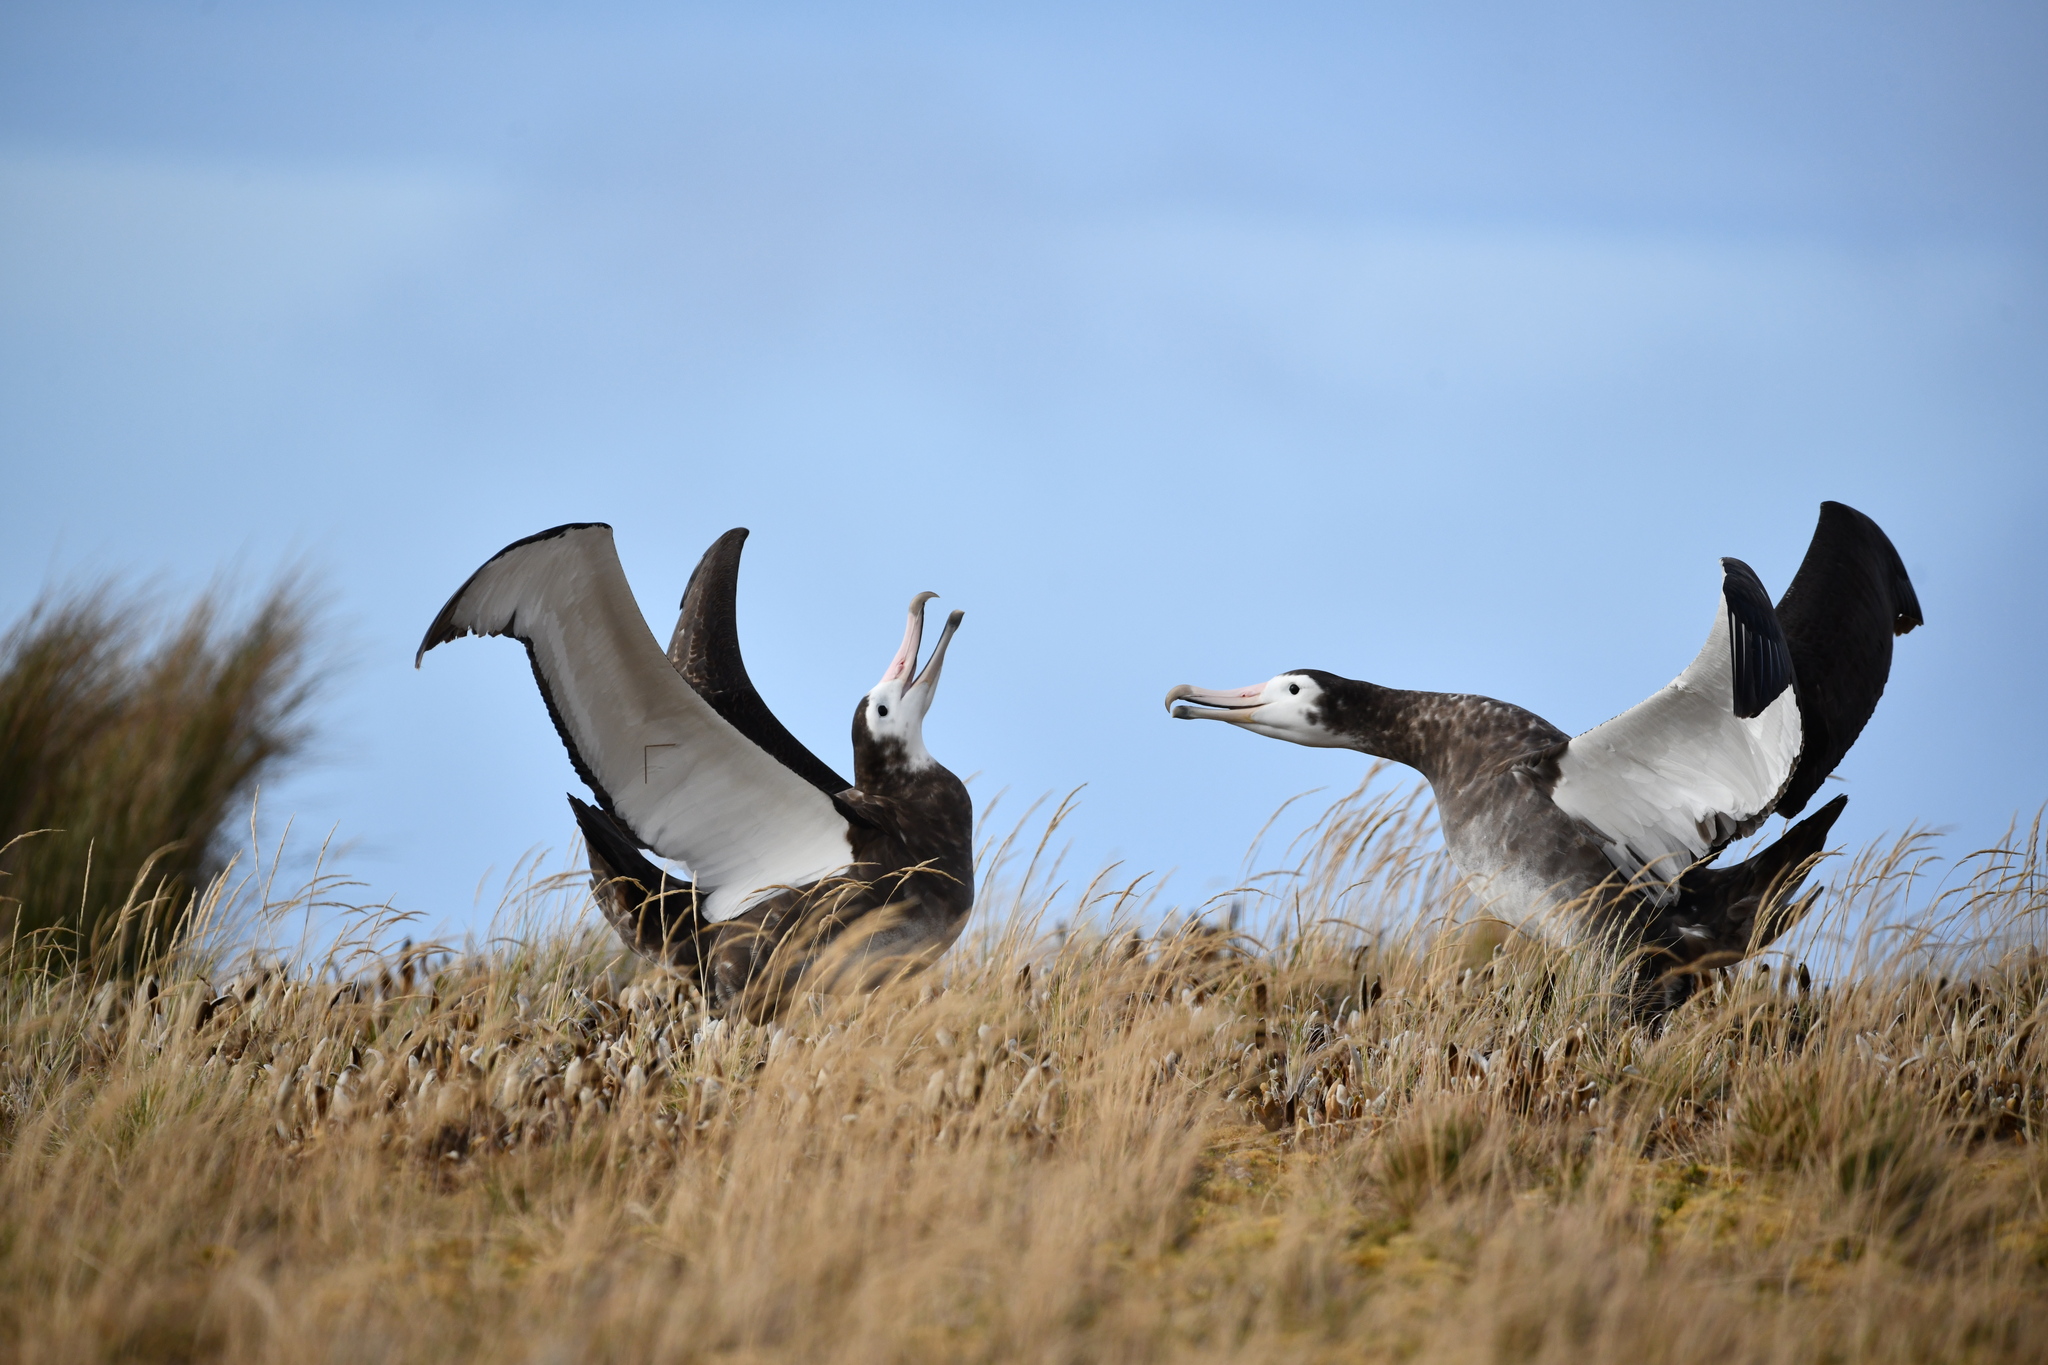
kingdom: Animalia
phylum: Chordata
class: Aves
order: Procellariiformes
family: Diomedeidae
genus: Diomedea
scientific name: Diomedea amsterdamensis
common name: Amsterdam albatross
